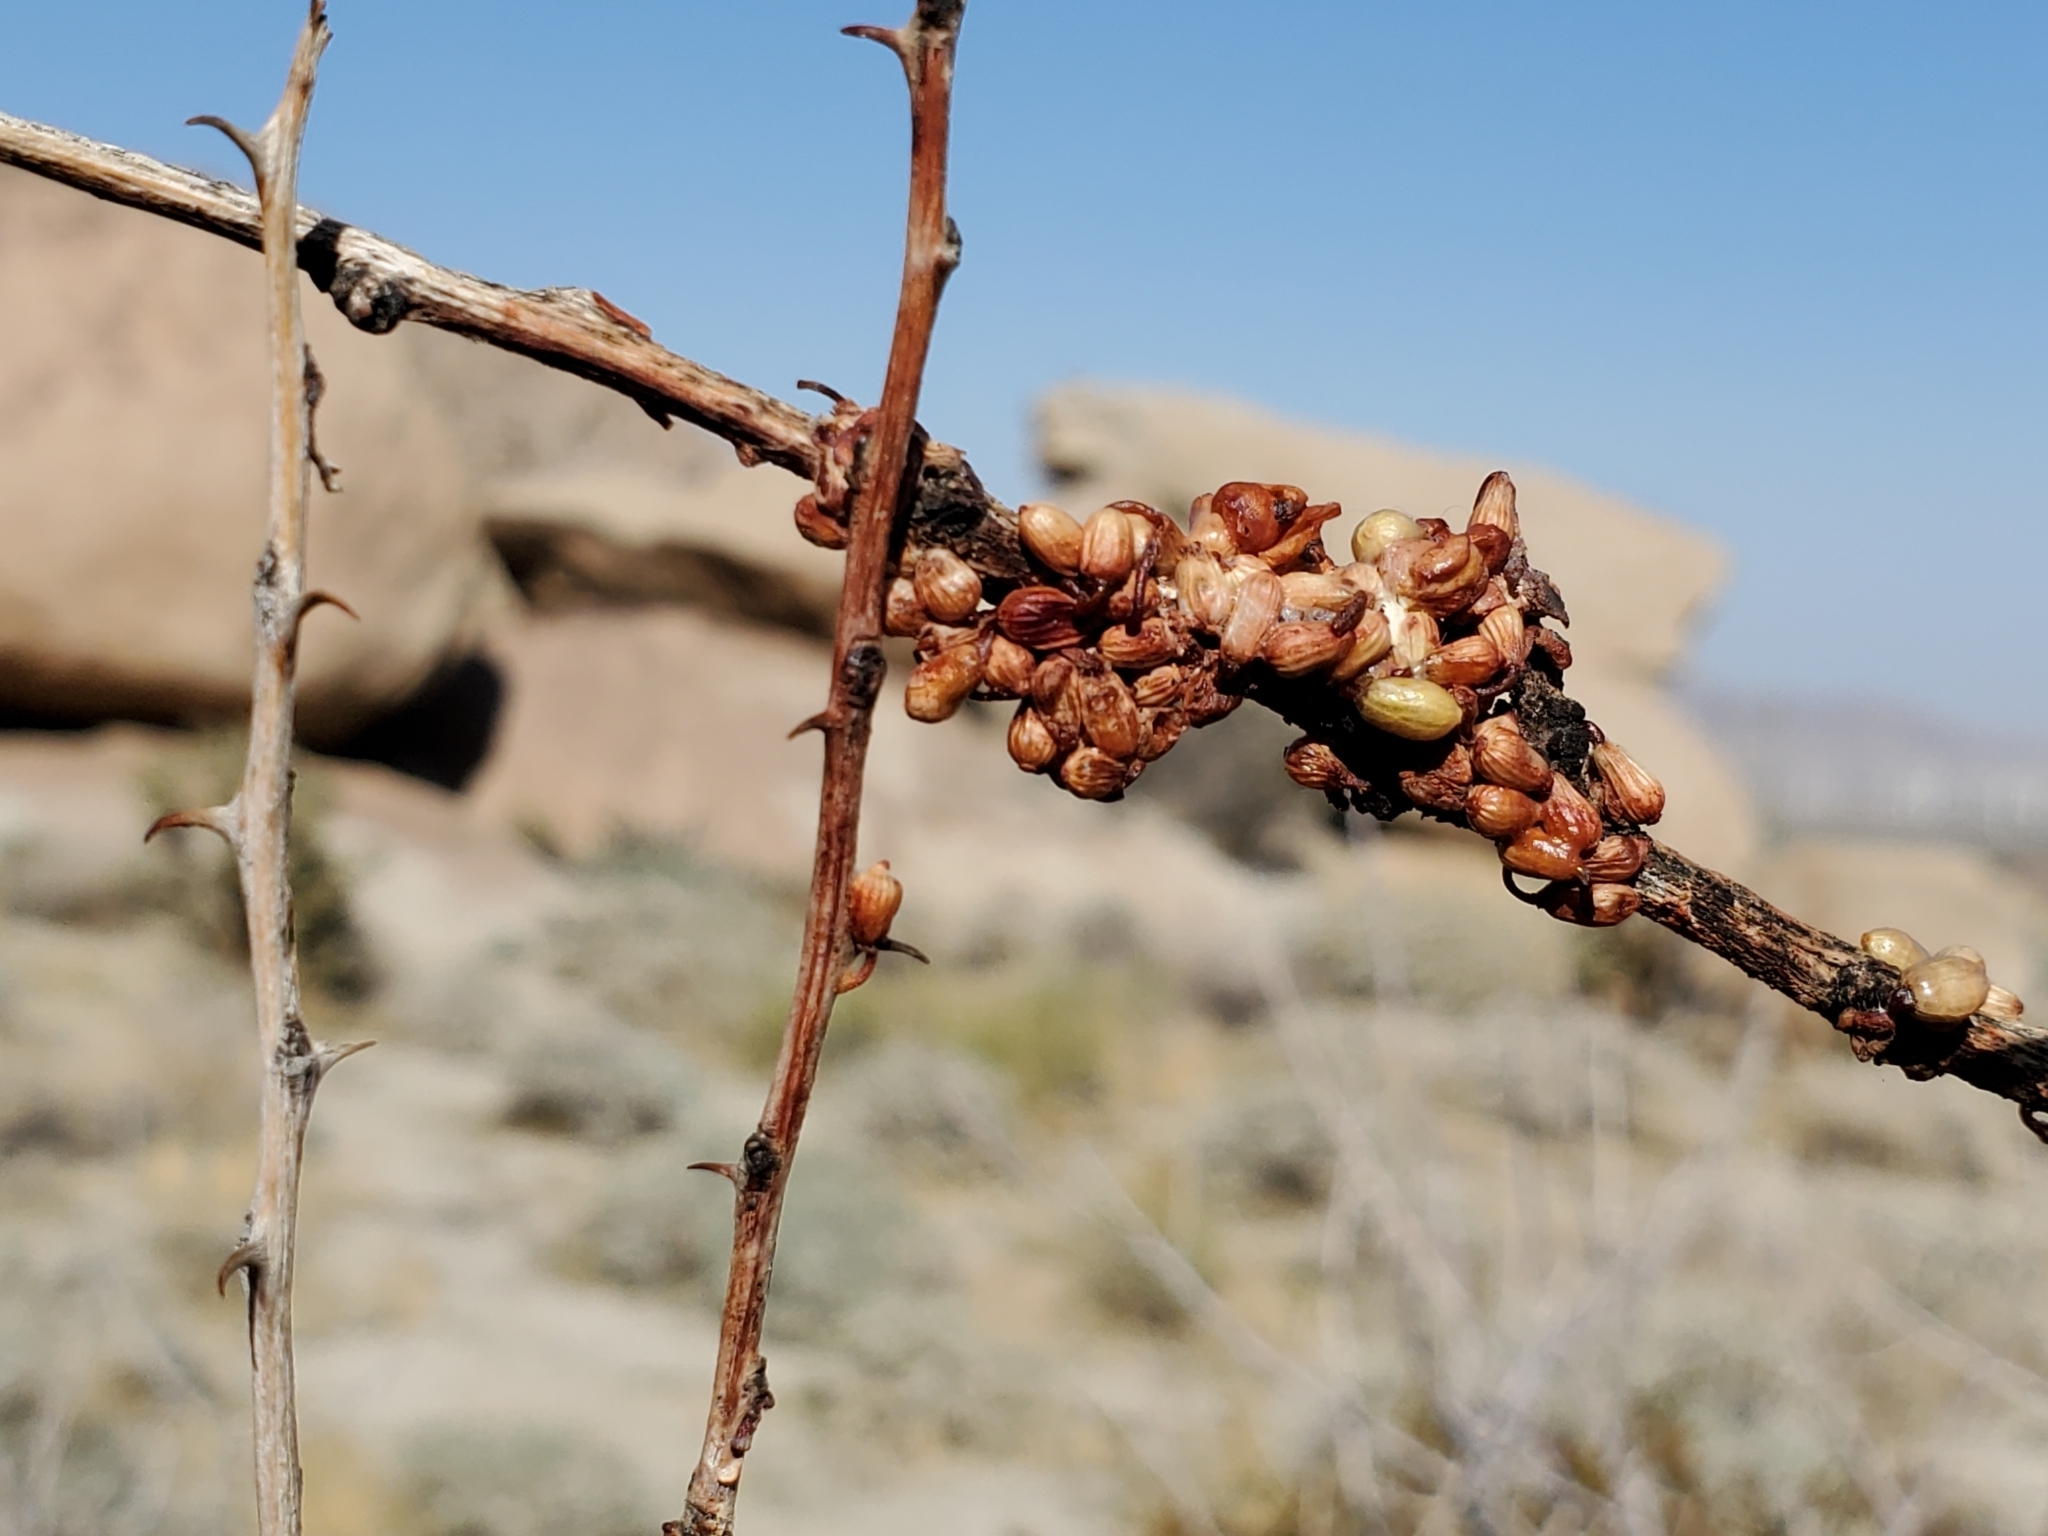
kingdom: Plantae
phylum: Tracheophyta
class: Magnoliopsida
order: Santalales
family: Viscaceae
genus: Phoradendron
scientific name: Phoradendron californicum
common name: Acacia mistletoe
